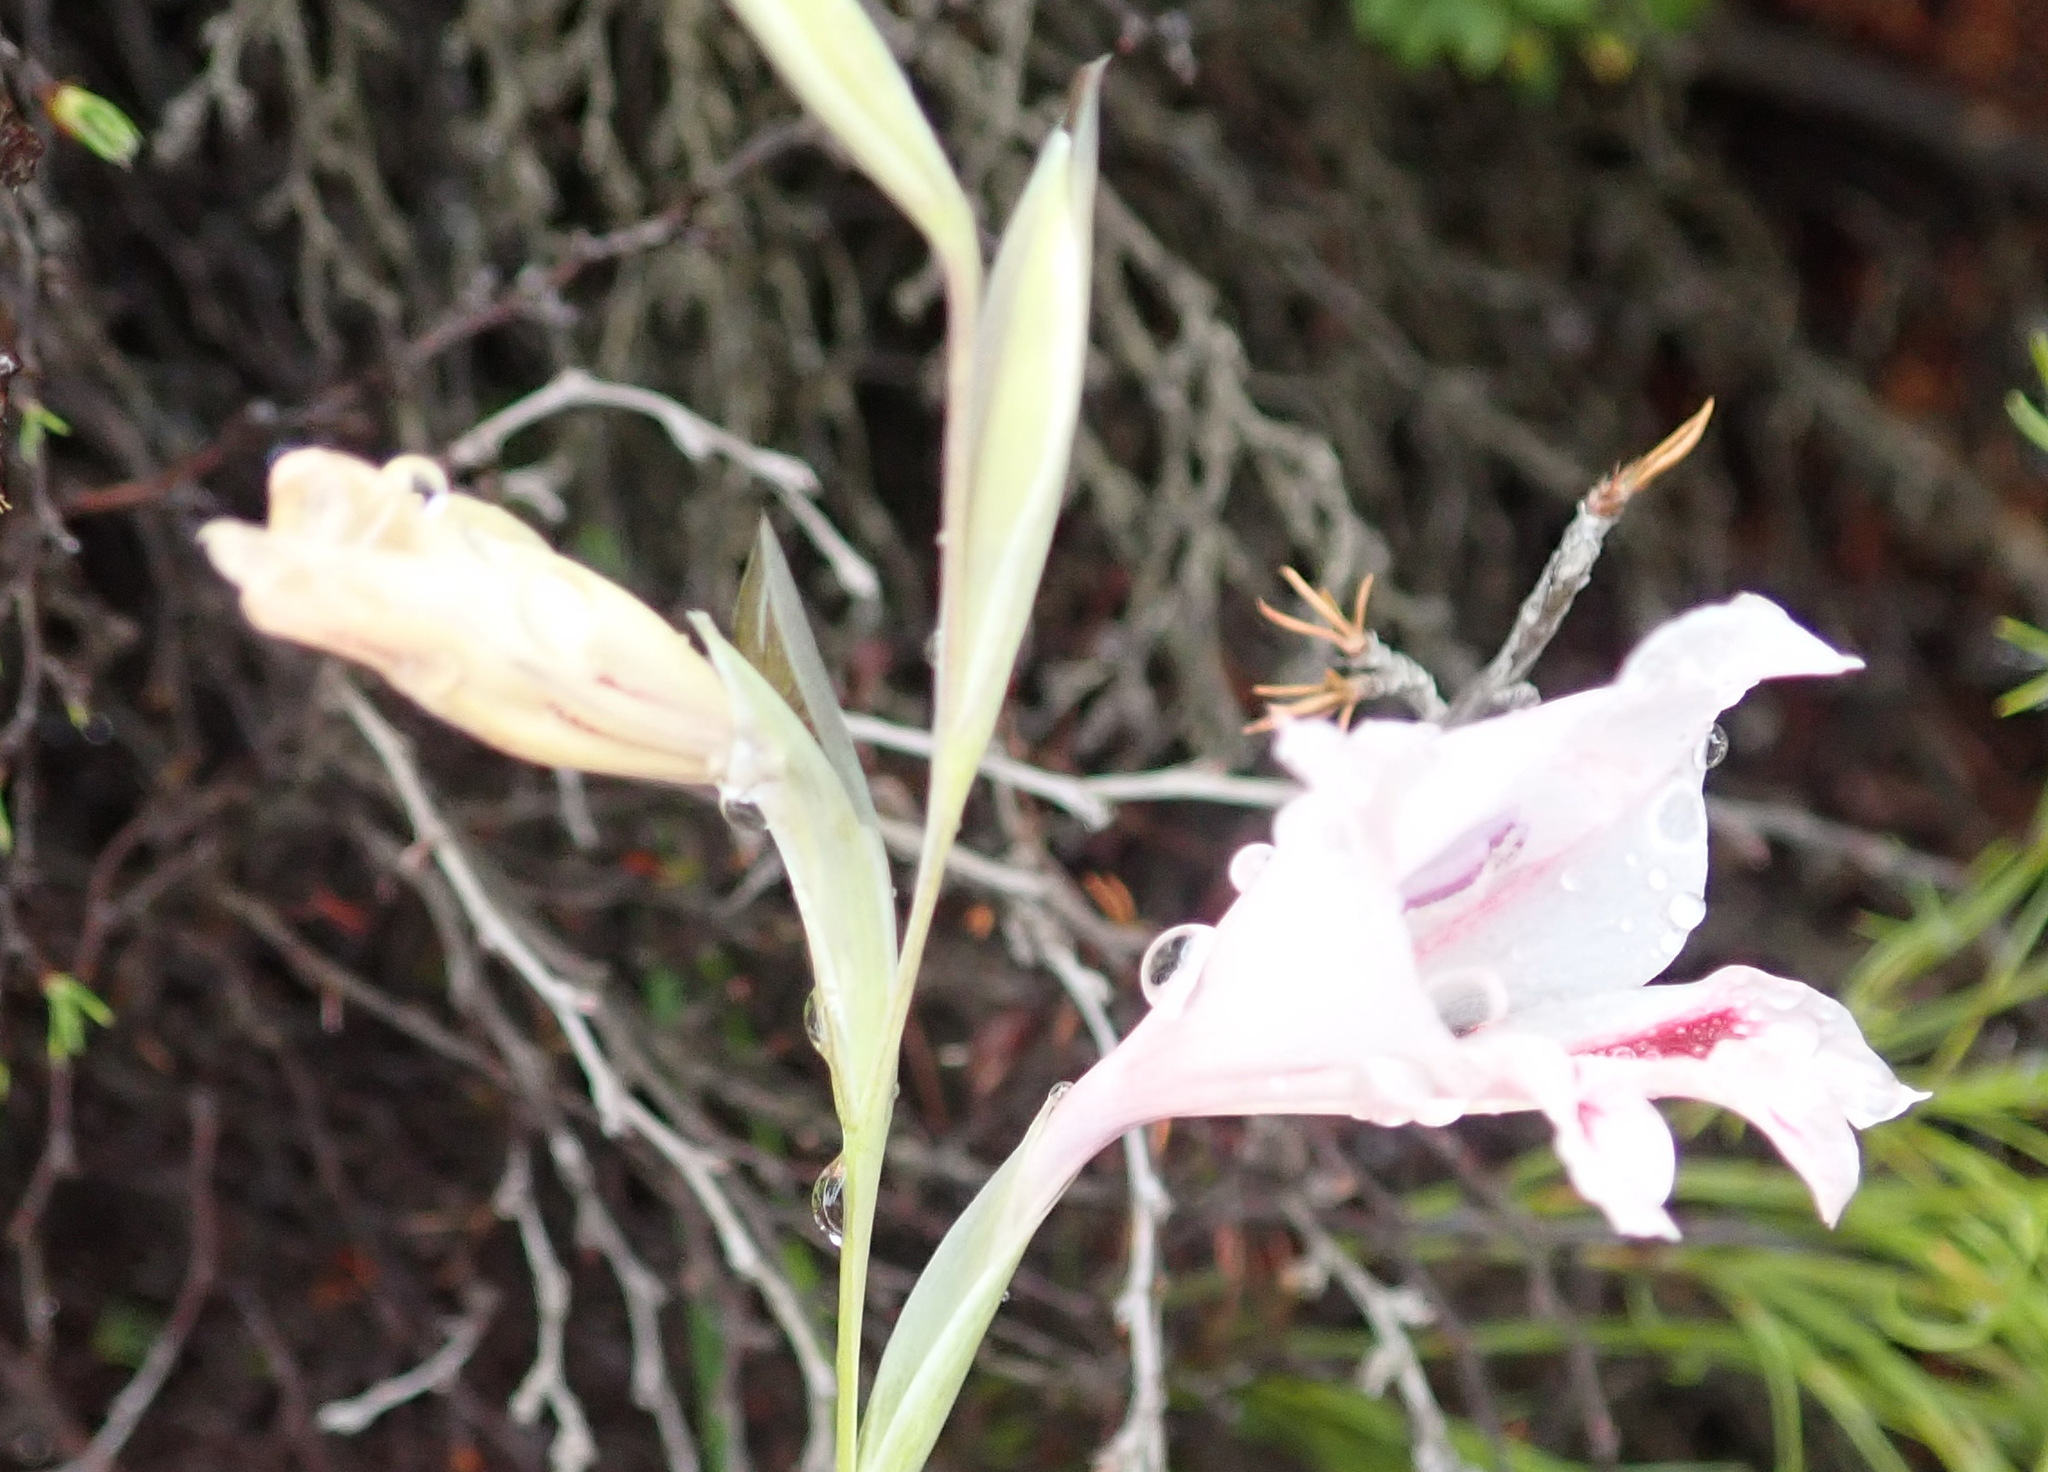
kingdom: Plantae
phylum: Tracheophyta
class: Liliopsida
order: Asparagales
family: Iridaceae
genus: Gladiolus
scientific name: Gladiolus nigromontanus
